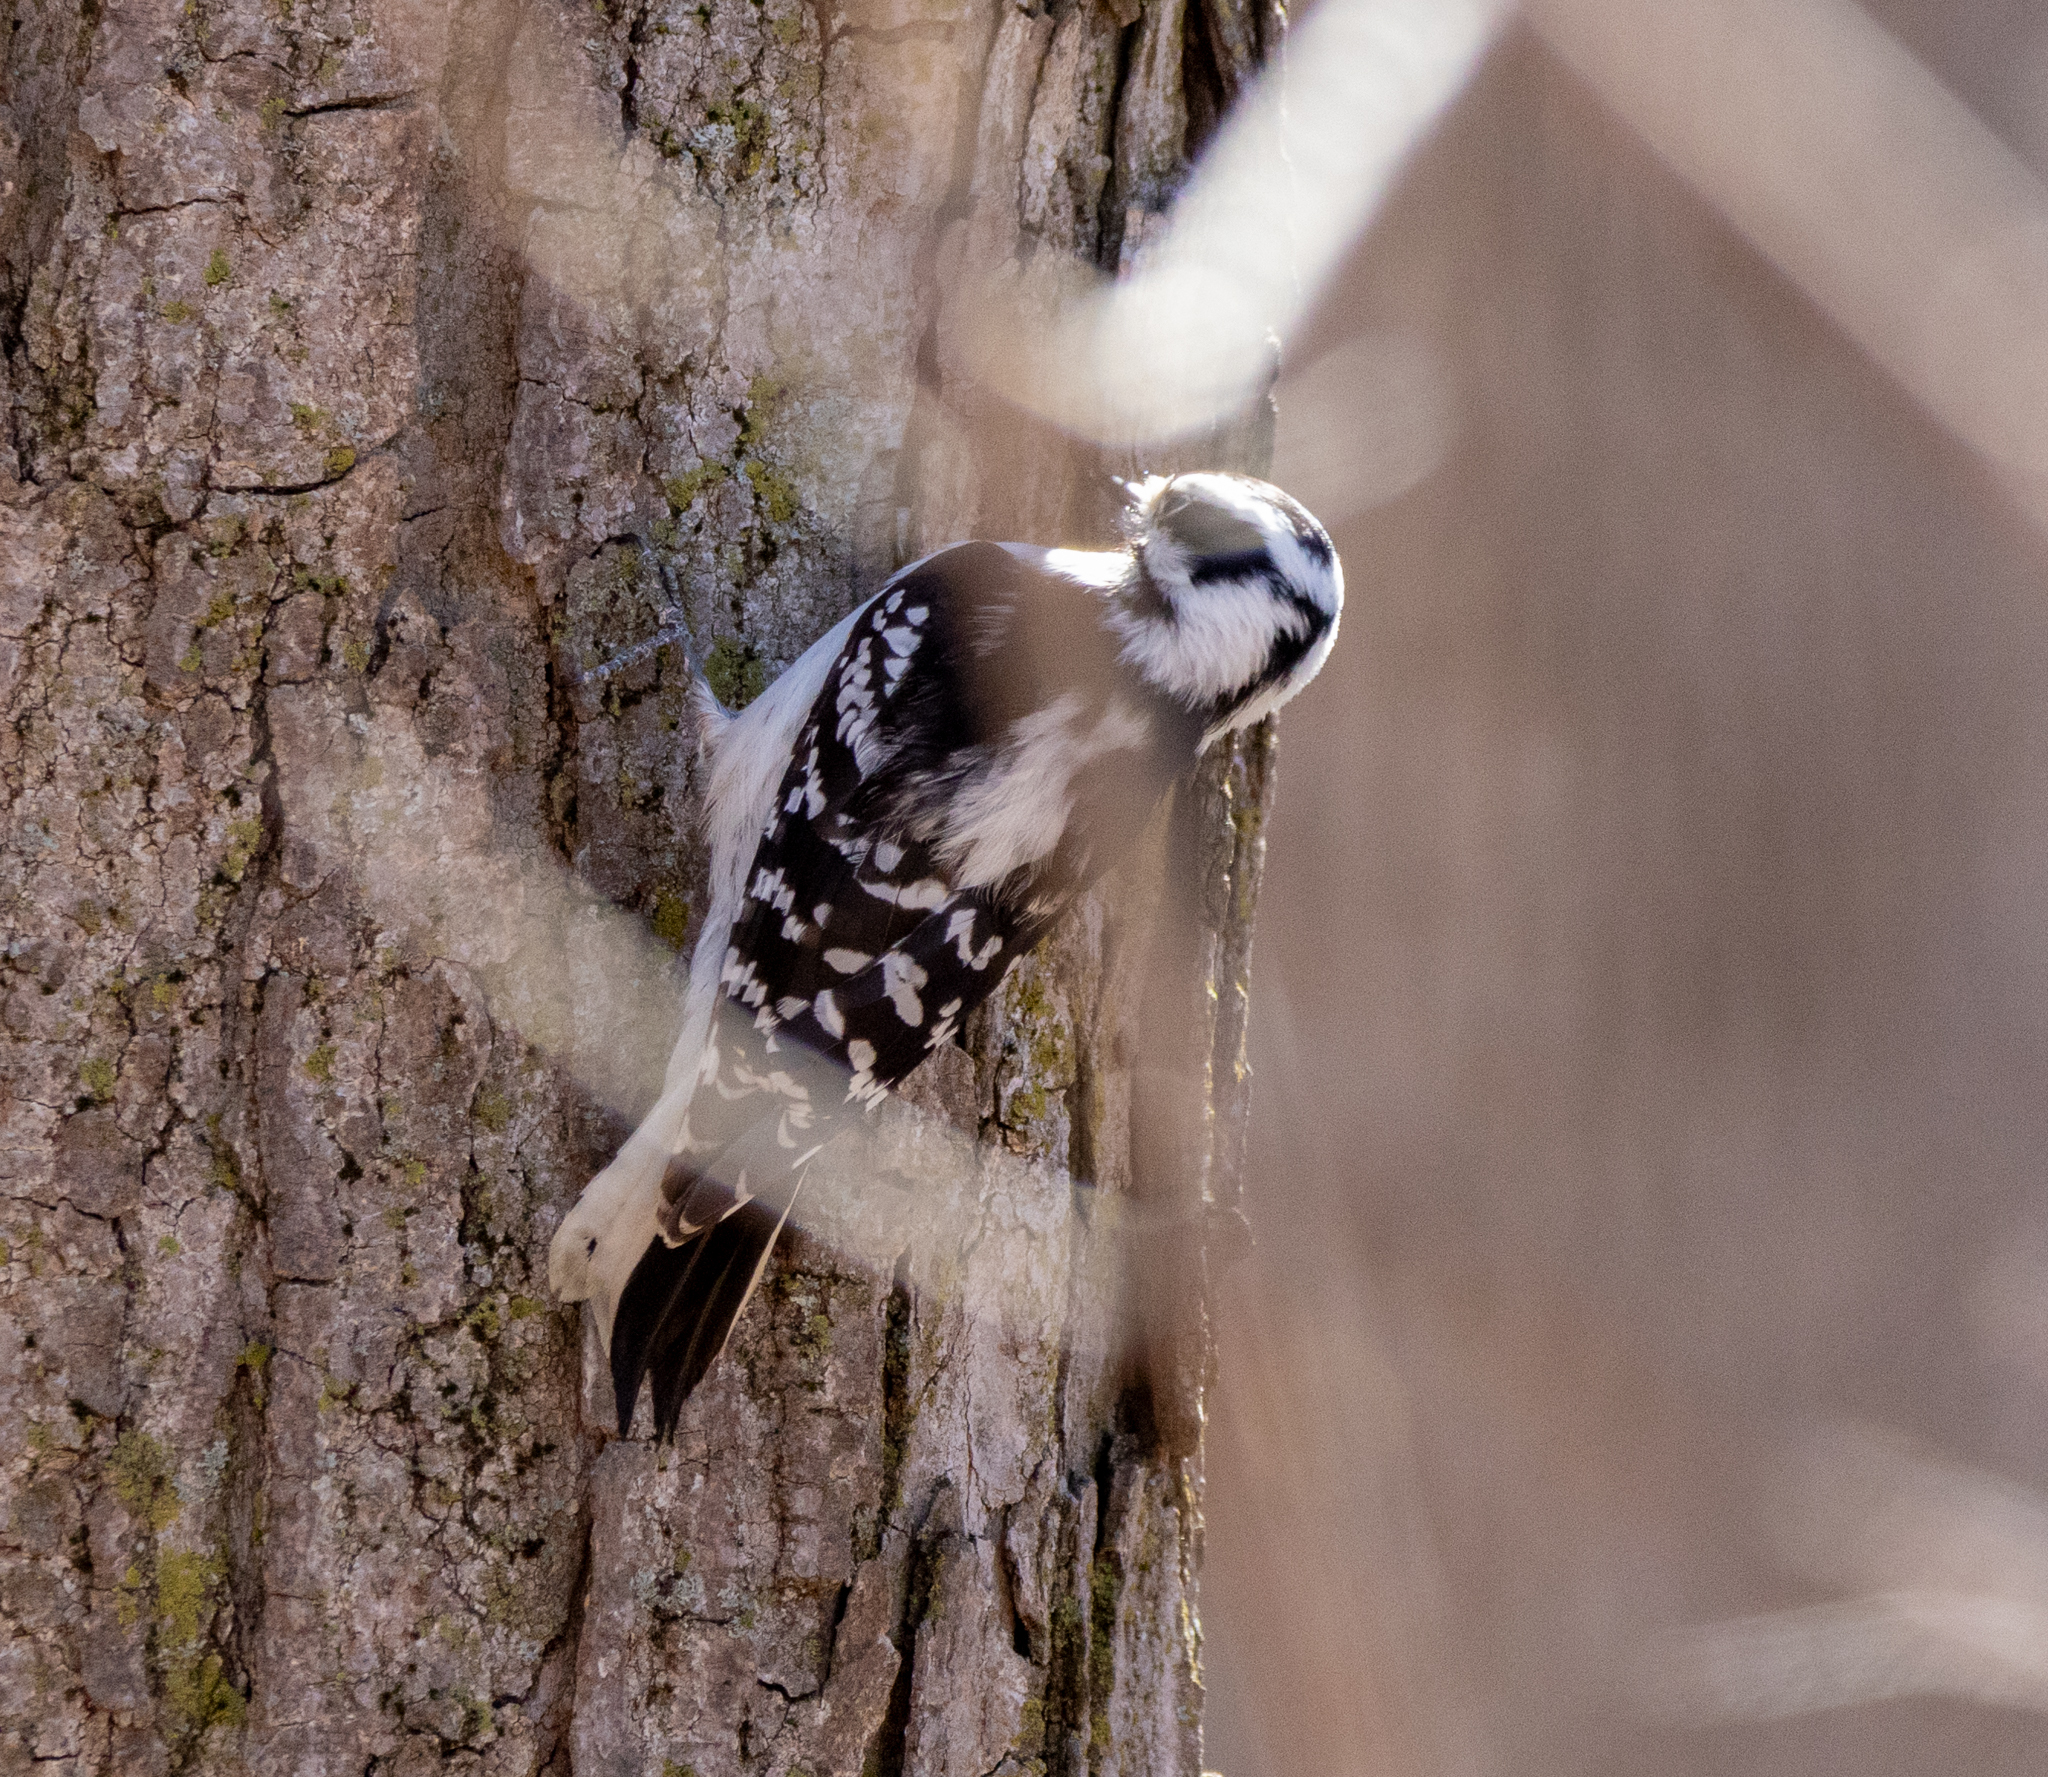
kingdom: Animalia
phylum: Chordata
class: Aves
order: Piciformes
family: Picidae
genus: Dryobates
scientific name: Dryobates pubescens
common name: Downy woodpecker
